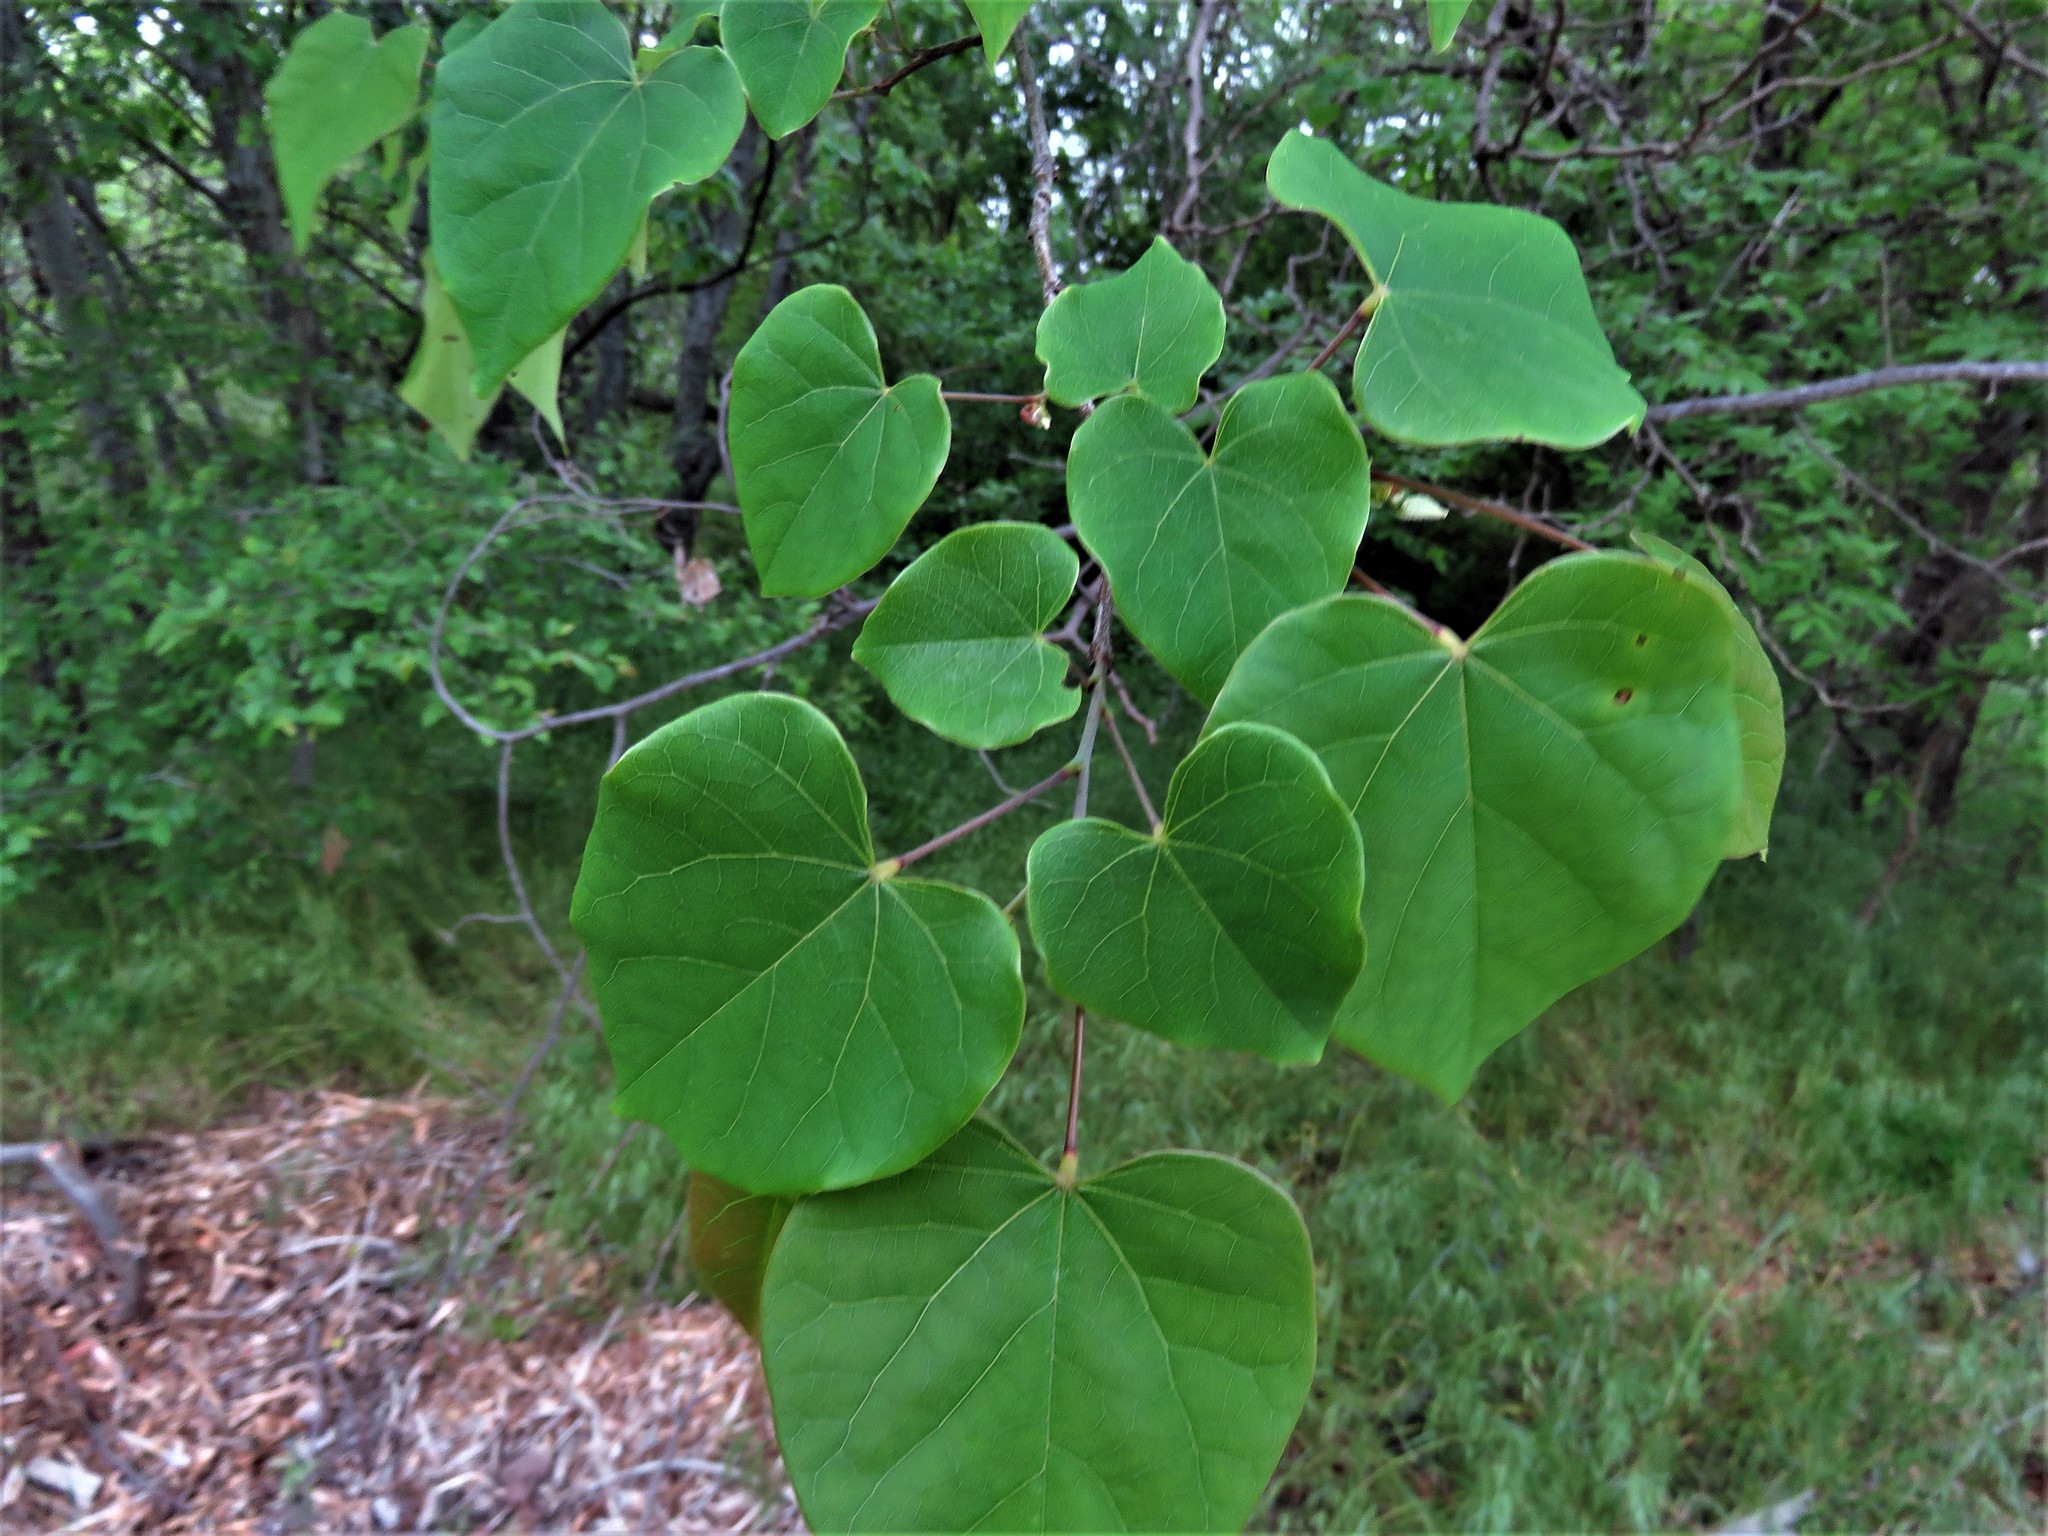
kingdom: Plantae
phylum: Tracheophyta
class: Magnoliopsida
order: Fabales
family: Fabaceae
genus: Cercis
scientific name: Cercis canadensis
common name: Eastern redbud
